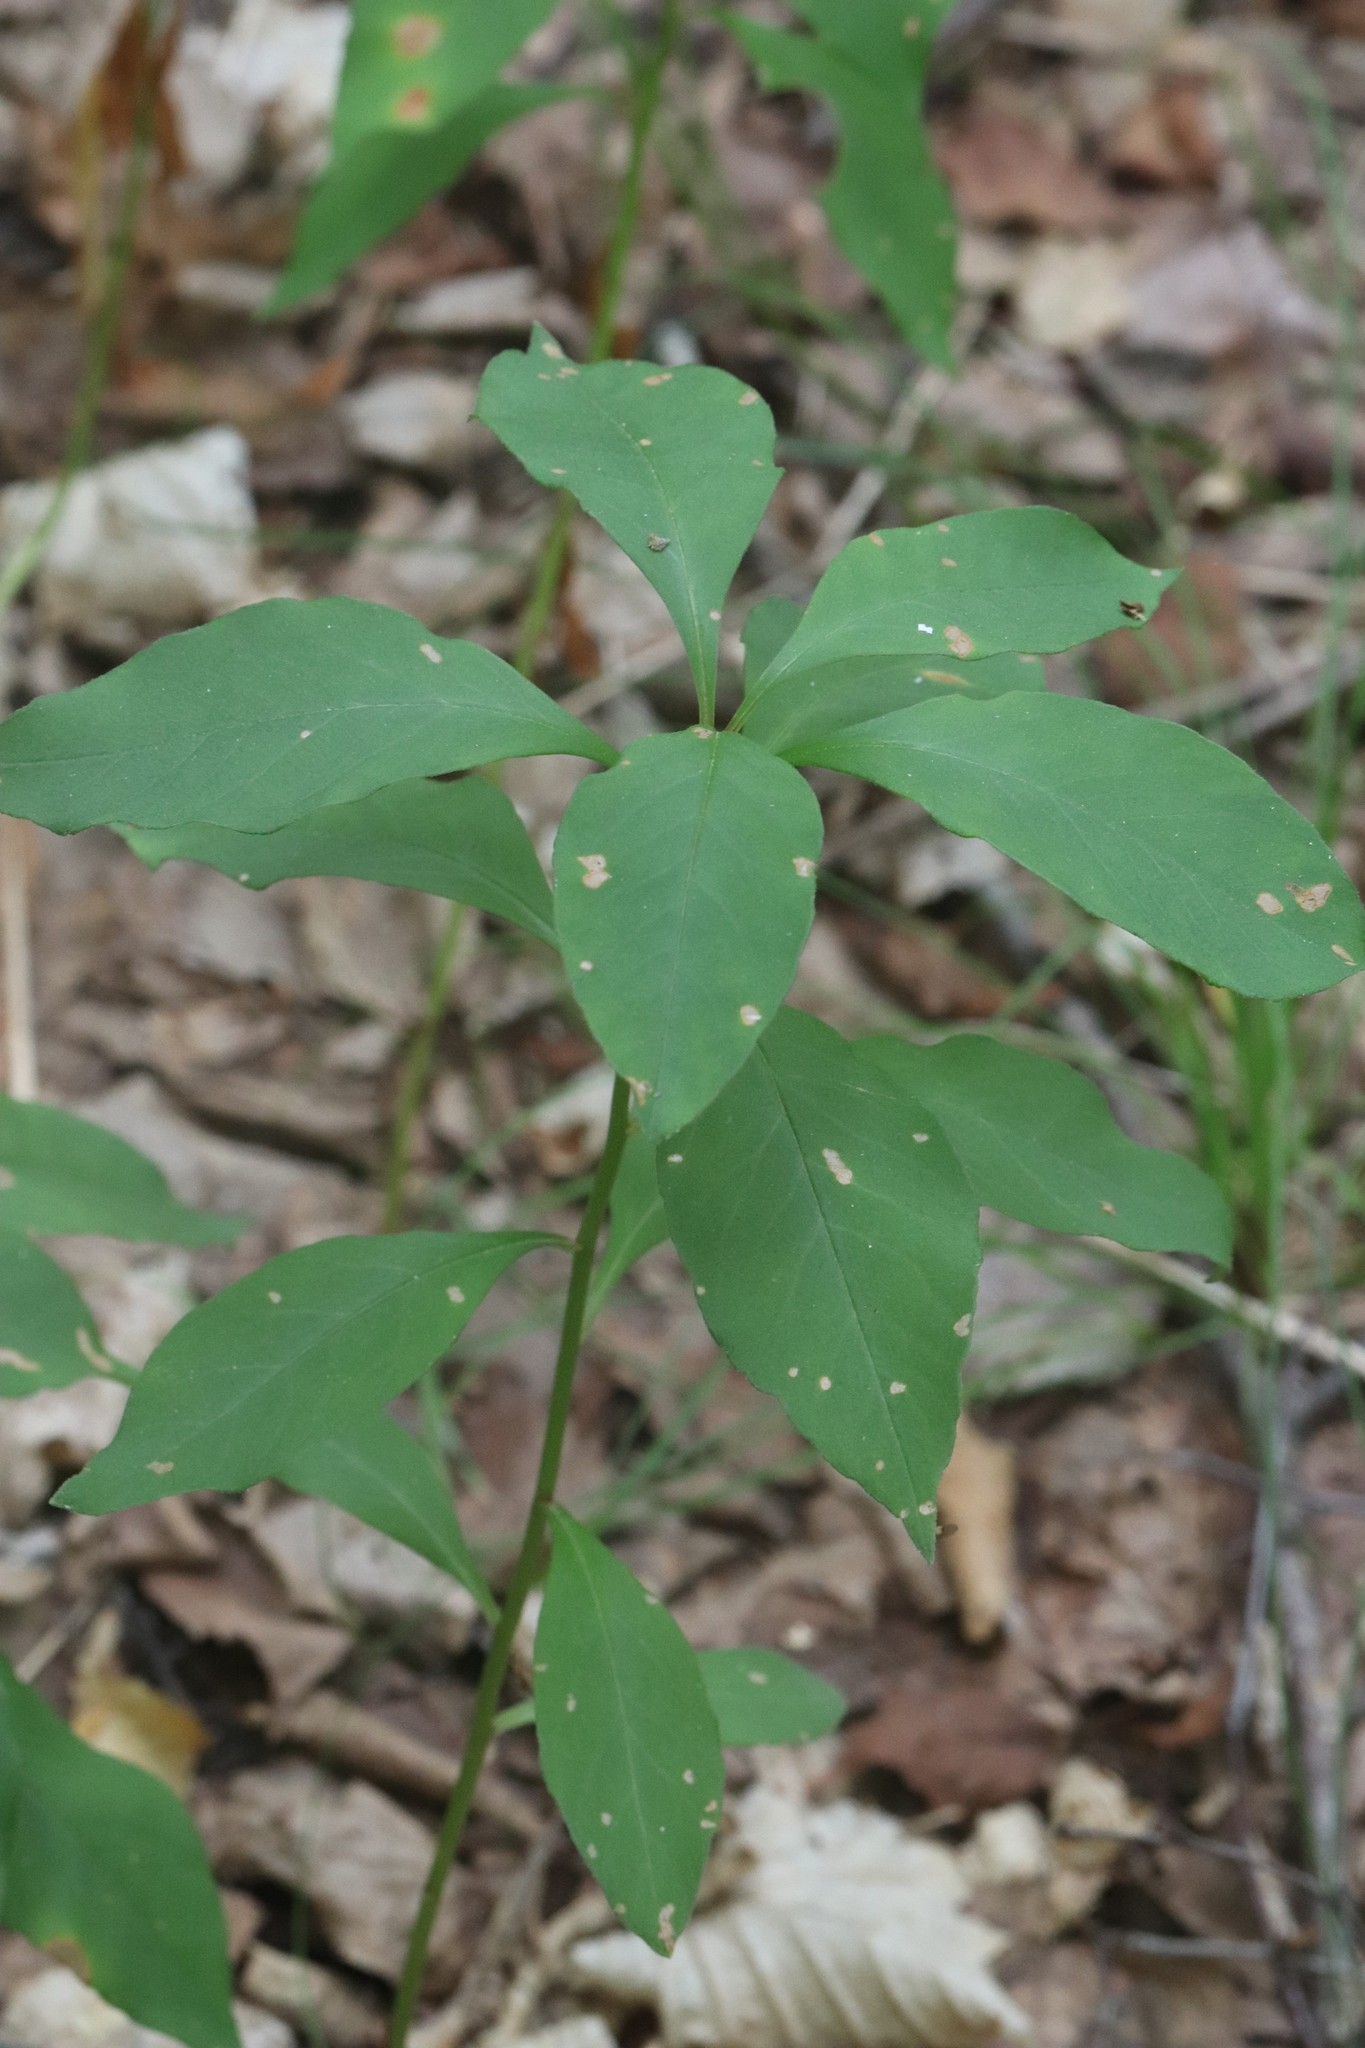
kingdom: Plantae
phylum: Tracheophyta
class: Magnoliopsida
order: Ericales
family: Primulaceae
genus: Lysimachia
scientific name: Lysimachia clethroides
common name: Gooseneck loosestrife
